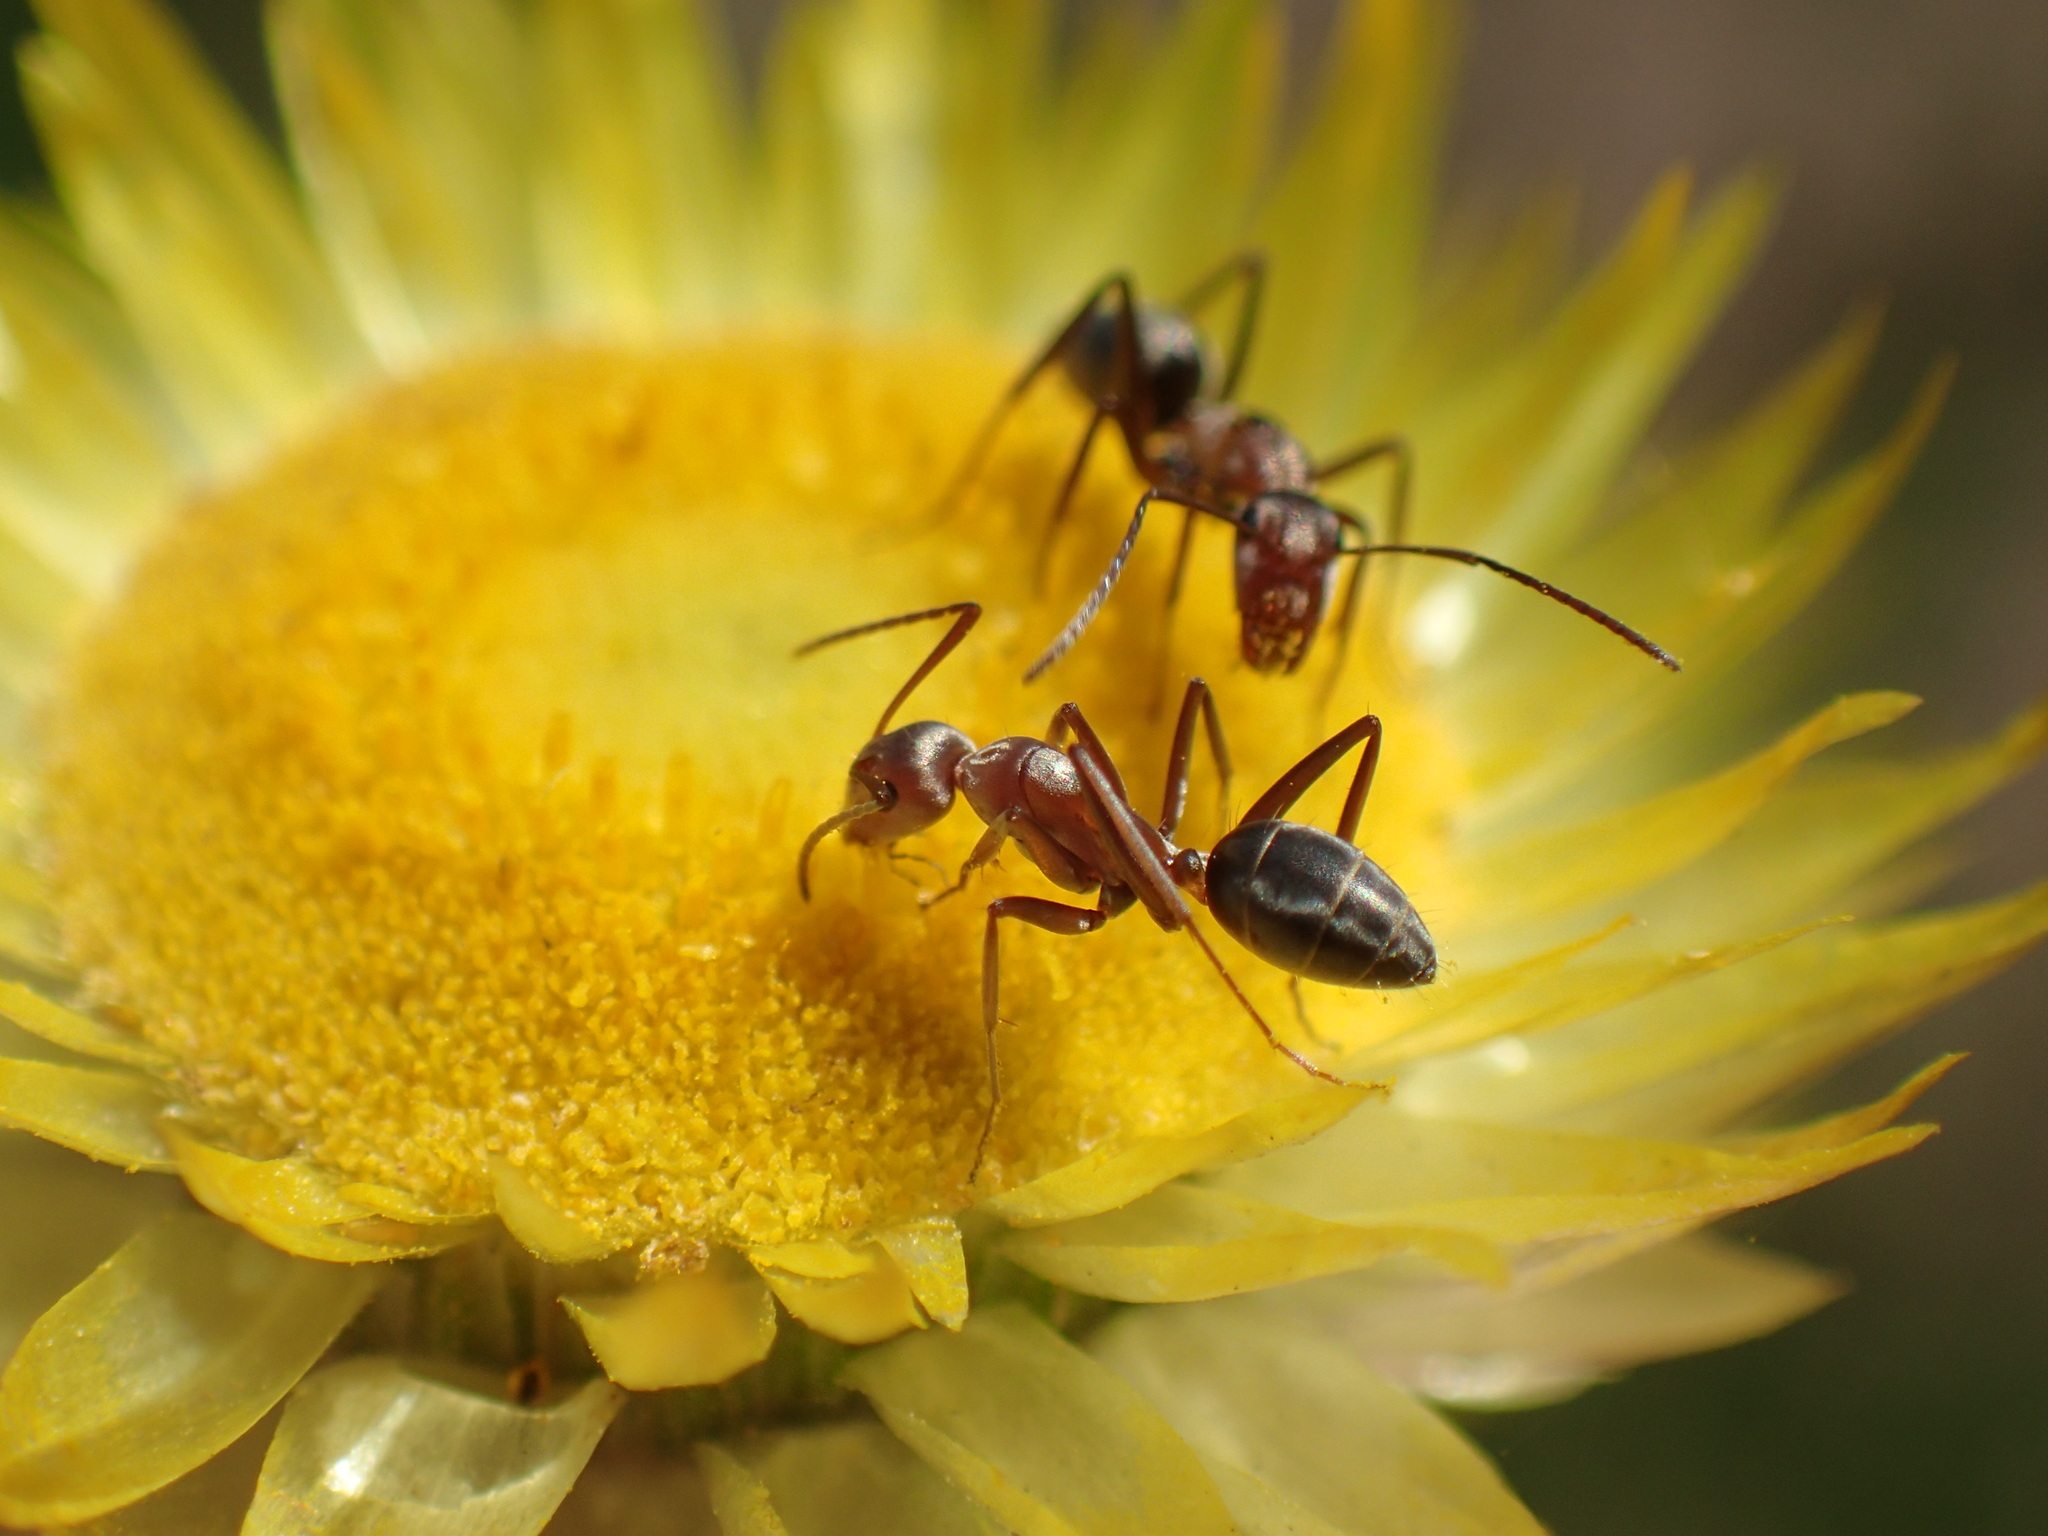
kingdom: Animalia
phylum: Arthropoda
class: Insecta
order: Hymenoptera
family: Formicidae
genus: Camponotus
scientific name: Camponotus vestitus
